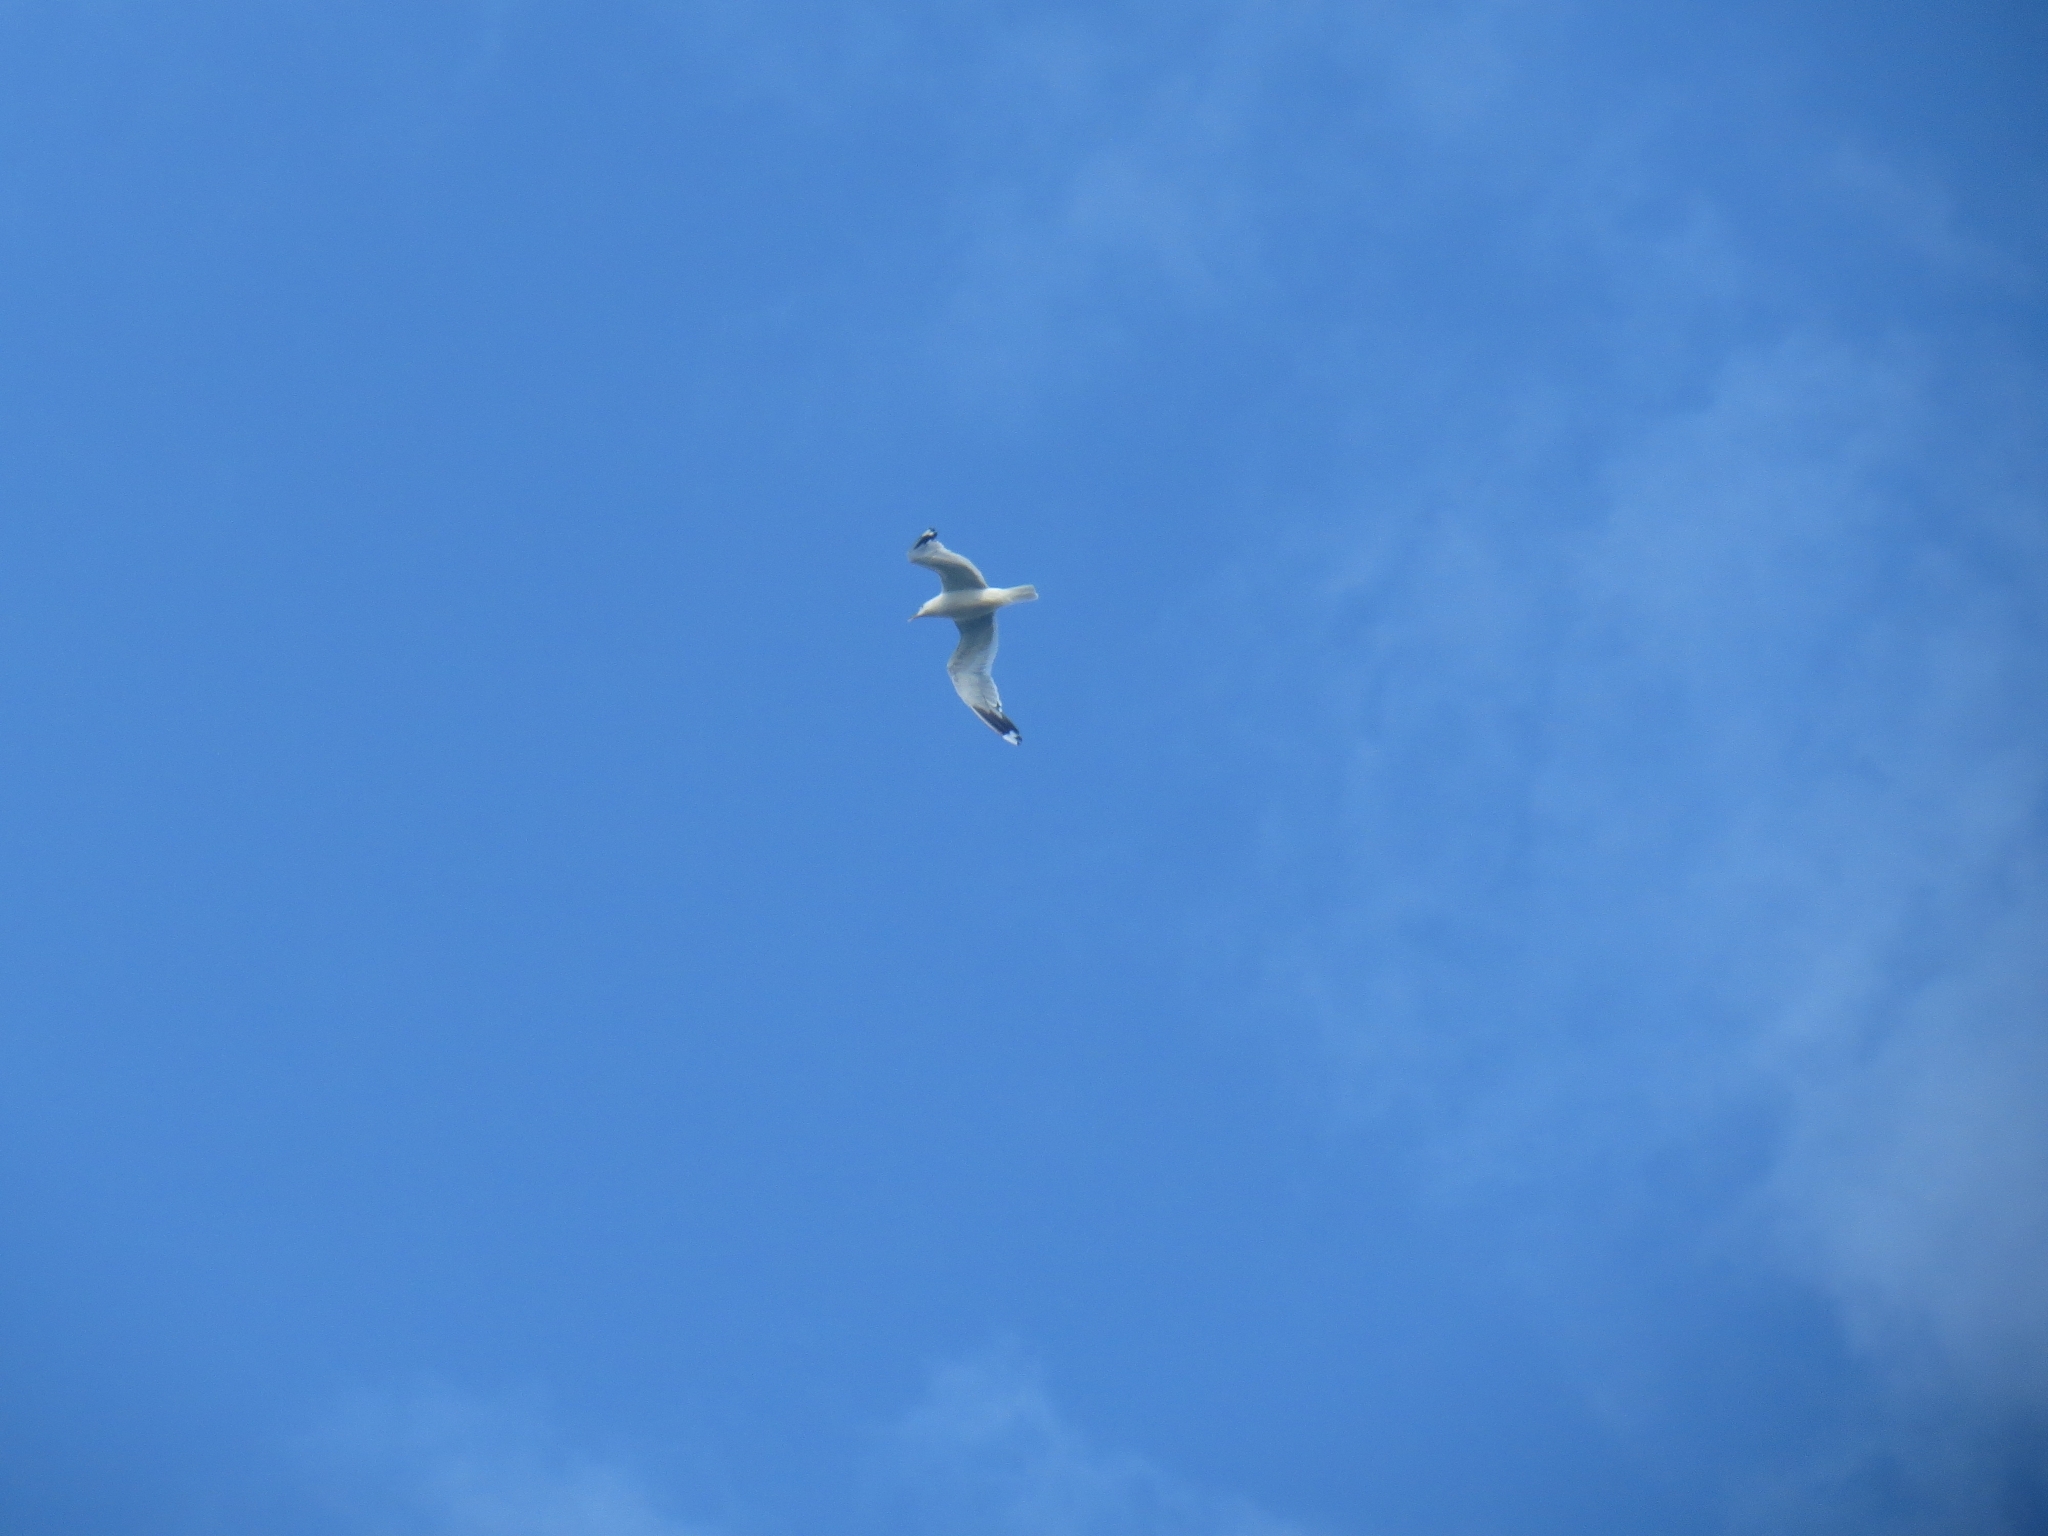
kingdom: Animalia
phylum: Chordata
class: Aves
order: Charadriiformes
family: Laridae
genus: Larus
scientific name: Larus canus
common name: Mew gull
